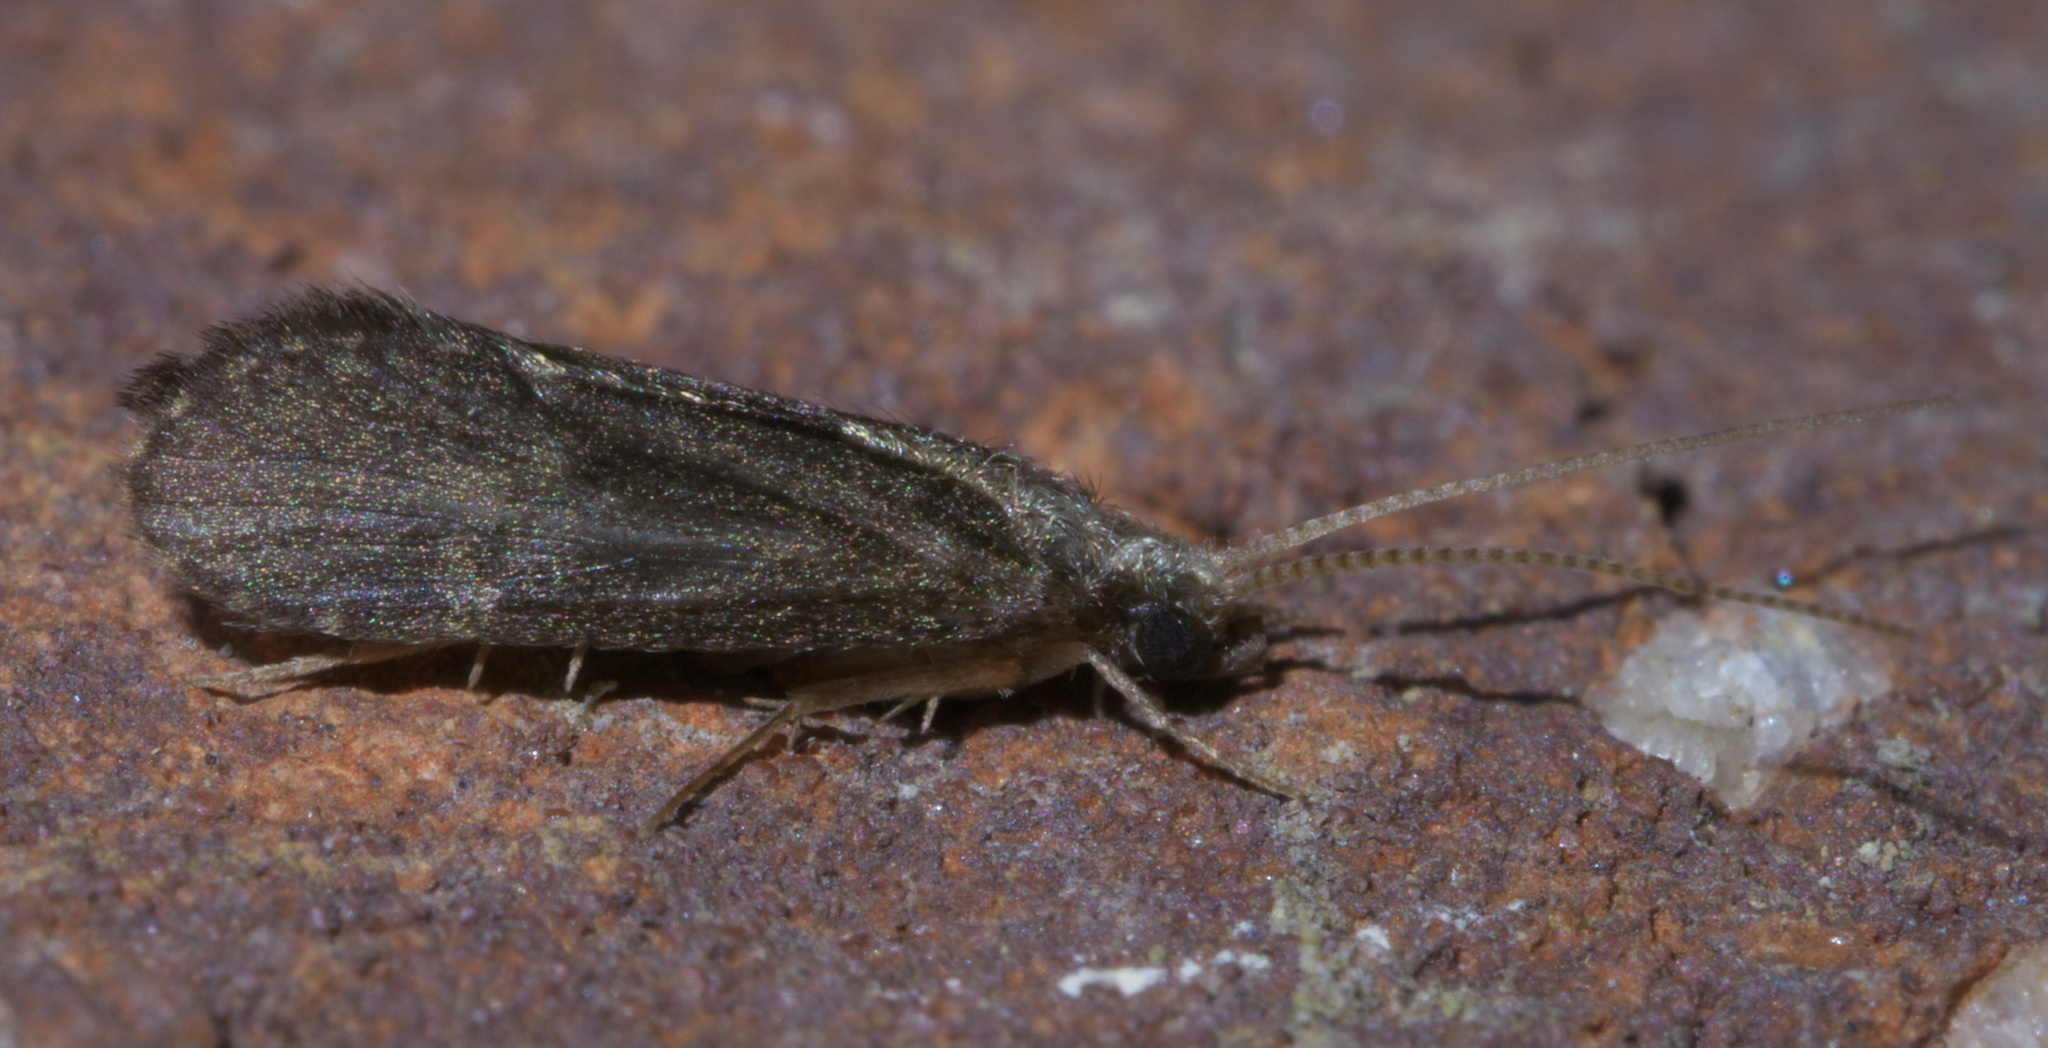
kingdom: Animalia
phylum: Arthropoda
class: Insecta
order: Trichoptera
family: Polycentropodidae
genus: Cyrnellus
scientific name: Cyrnellus fraternus
